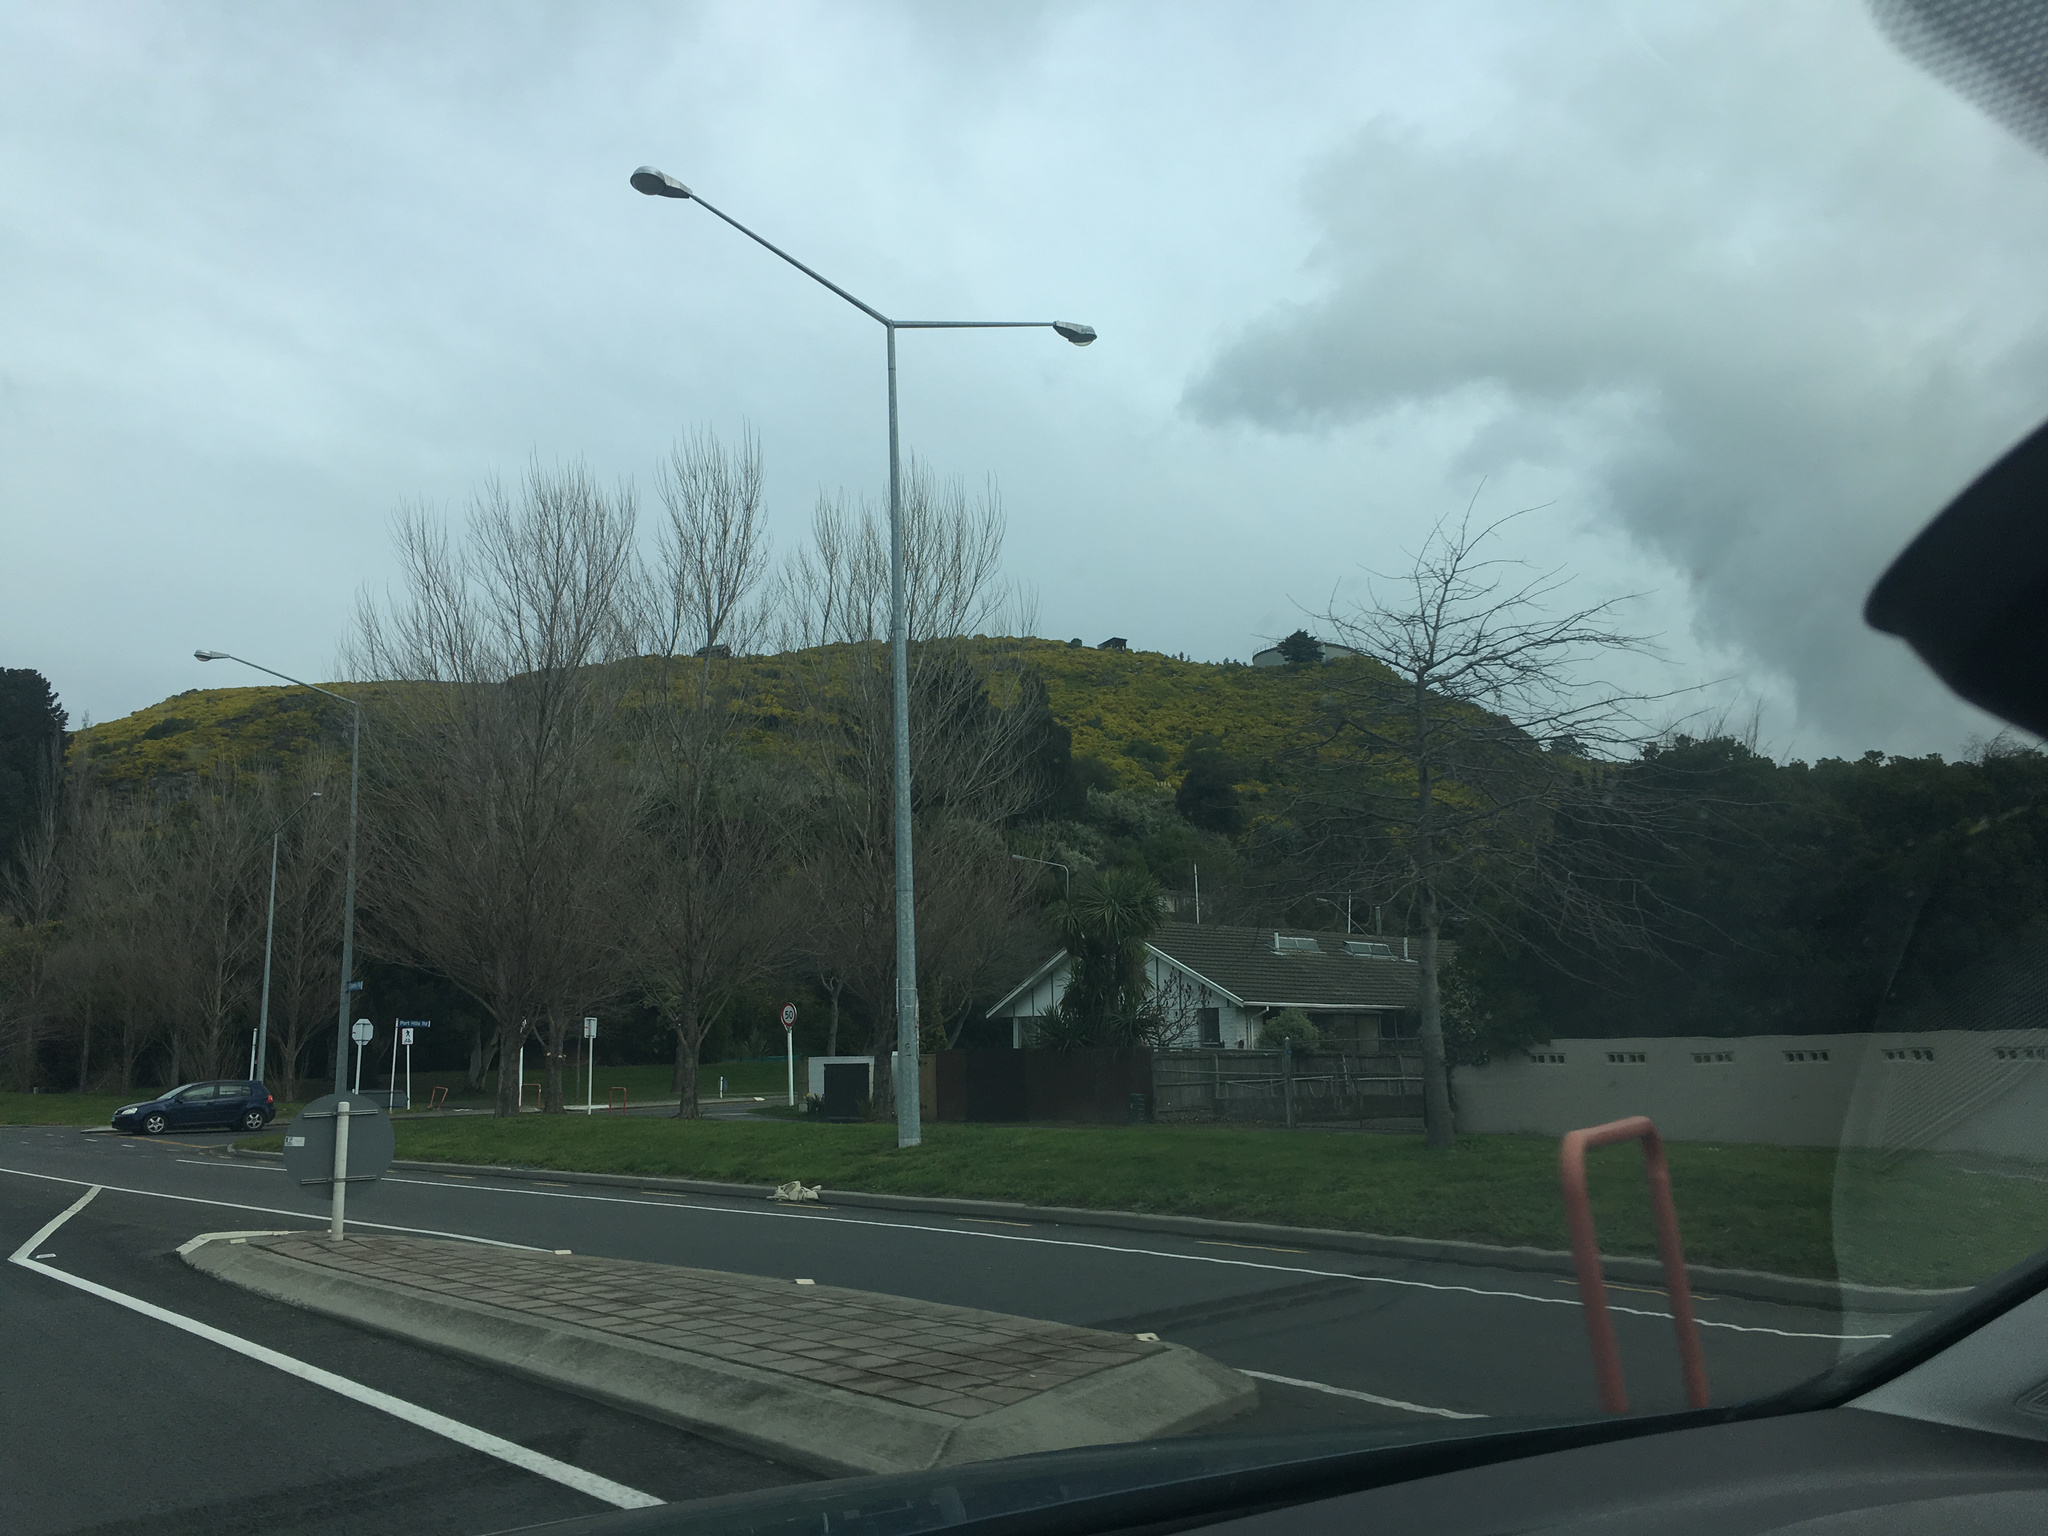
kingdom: Plantae
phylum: Tracheophyta
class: Magnoliopsida
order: Asterales
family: Asteraceae
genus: Osteospermum
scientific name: Osteospermum moniliferum
